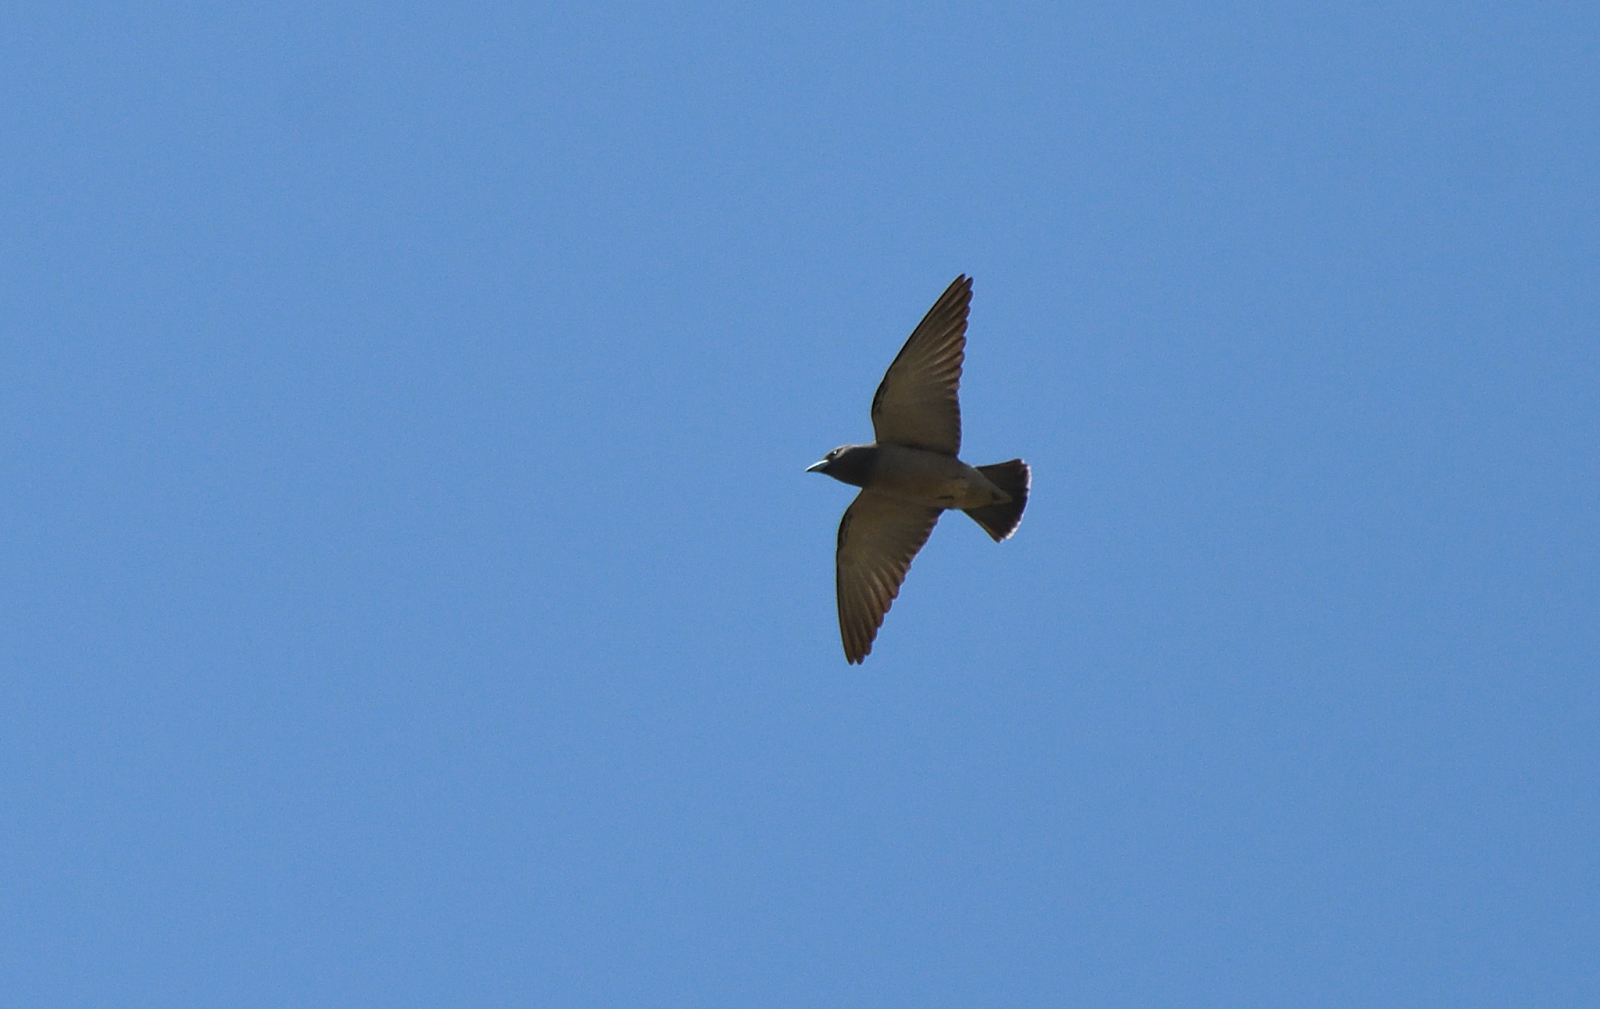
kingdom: Animalia
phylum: Chordata
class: Aves
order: Passeriformes
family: Artamidae
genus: Artamus
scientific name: Artamus fuscus
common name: Ashy woodswallow
